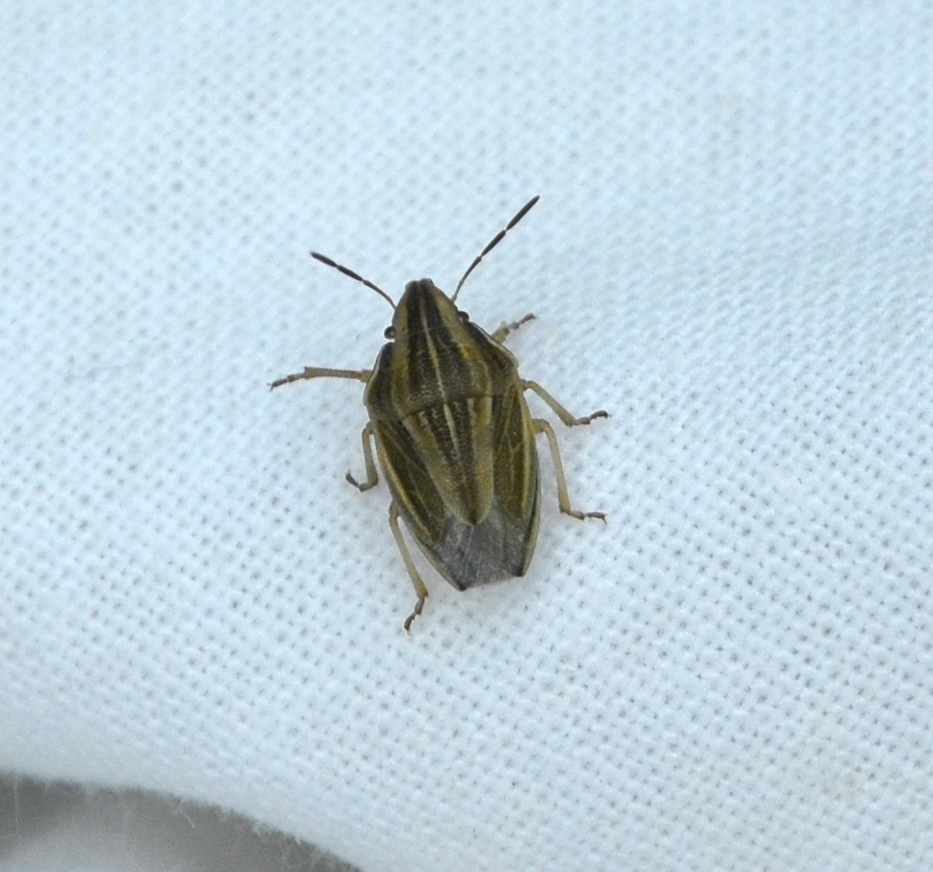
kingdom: Animalia
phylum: Arthropoda
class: Insecta
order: Hemiptera
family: Pentatomidae
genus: Aelia
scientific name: Aelia acuminata
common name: Bishop's mitre
